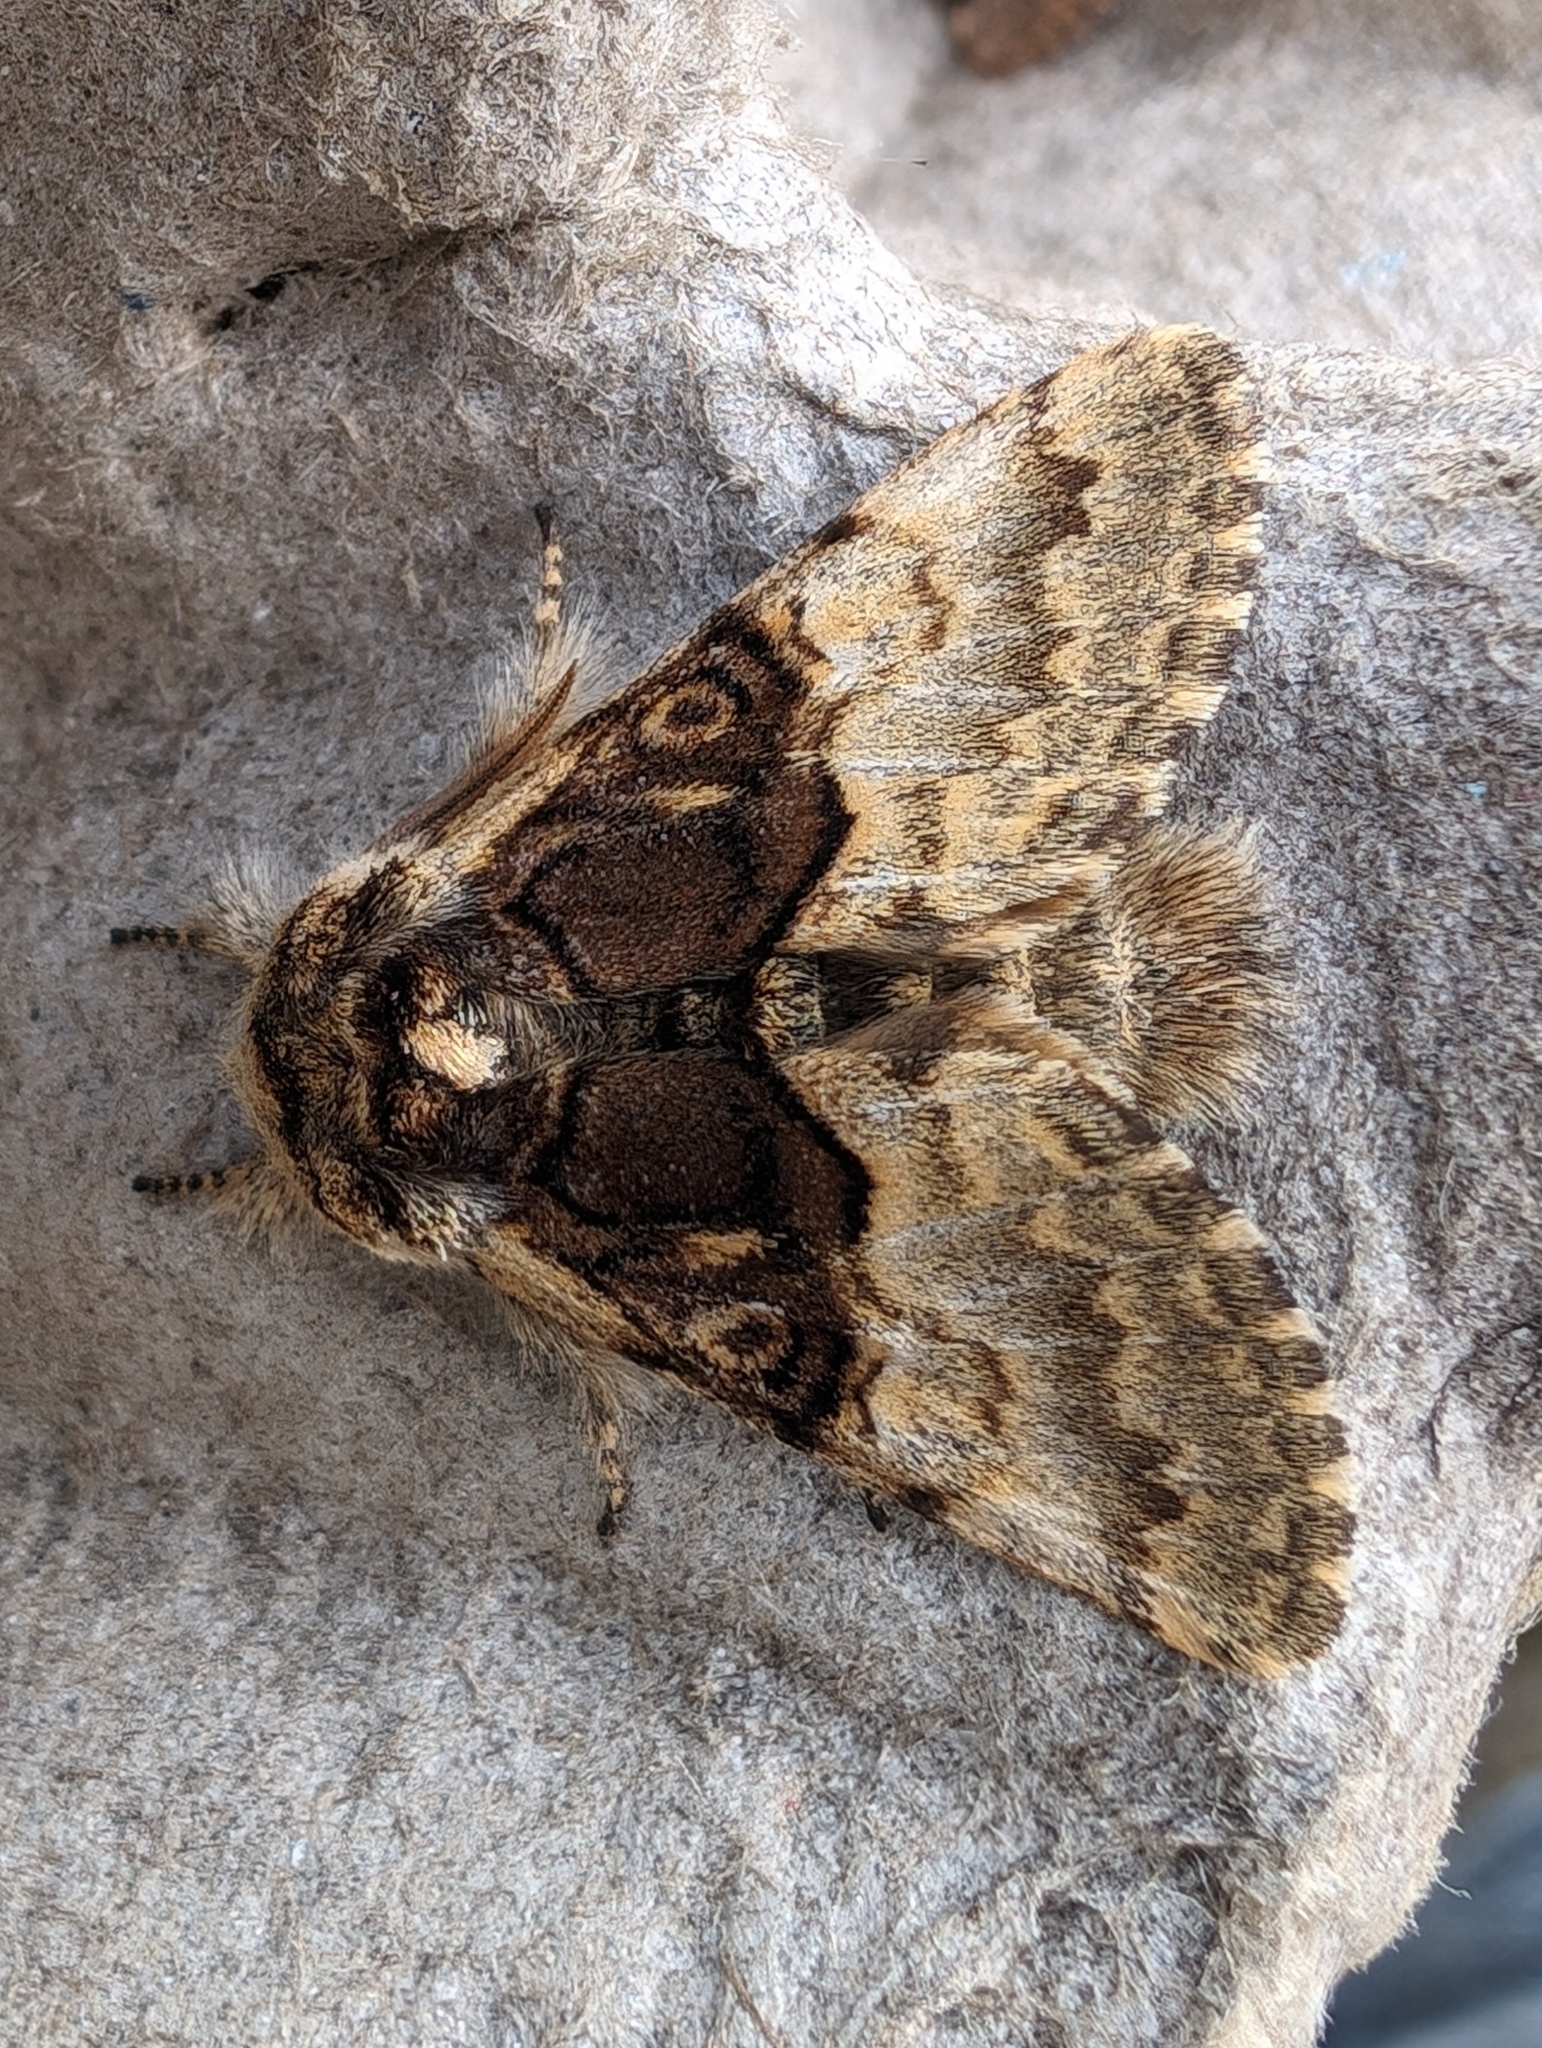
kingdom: Animalia
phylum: Arthropoda
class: Insecta
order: Lepidoptera
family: Noctuidae
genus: Colocasia
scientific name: Colocasia coryli
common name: Nut-tree tussock
